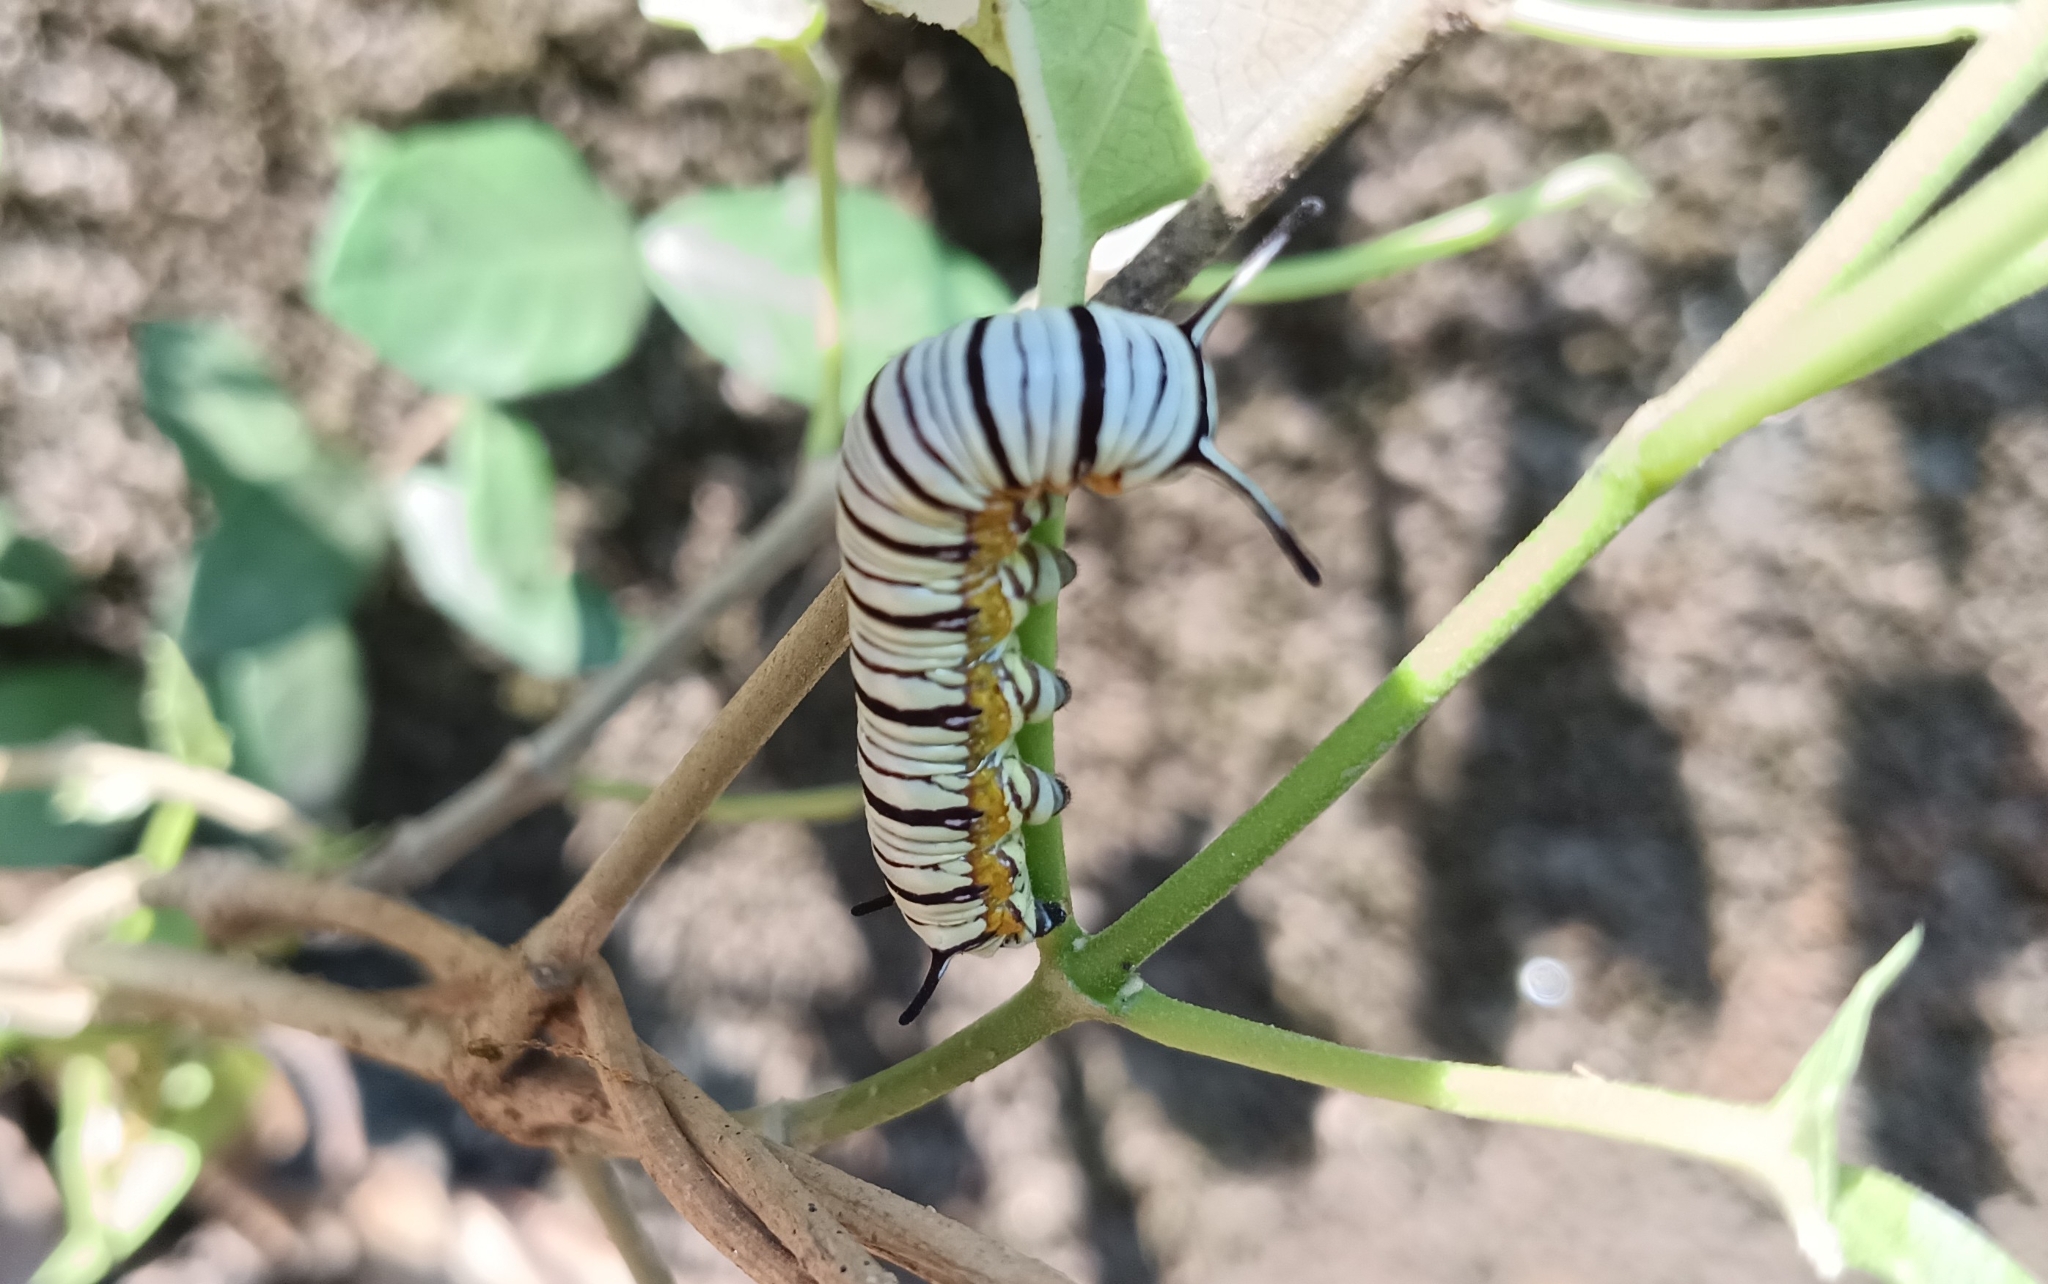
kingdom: Animalia
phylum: Arthropoda
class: Insecta
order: Lepidoptera
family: Nymphalidae
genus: Tirumala
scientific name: Tirumala limniace
